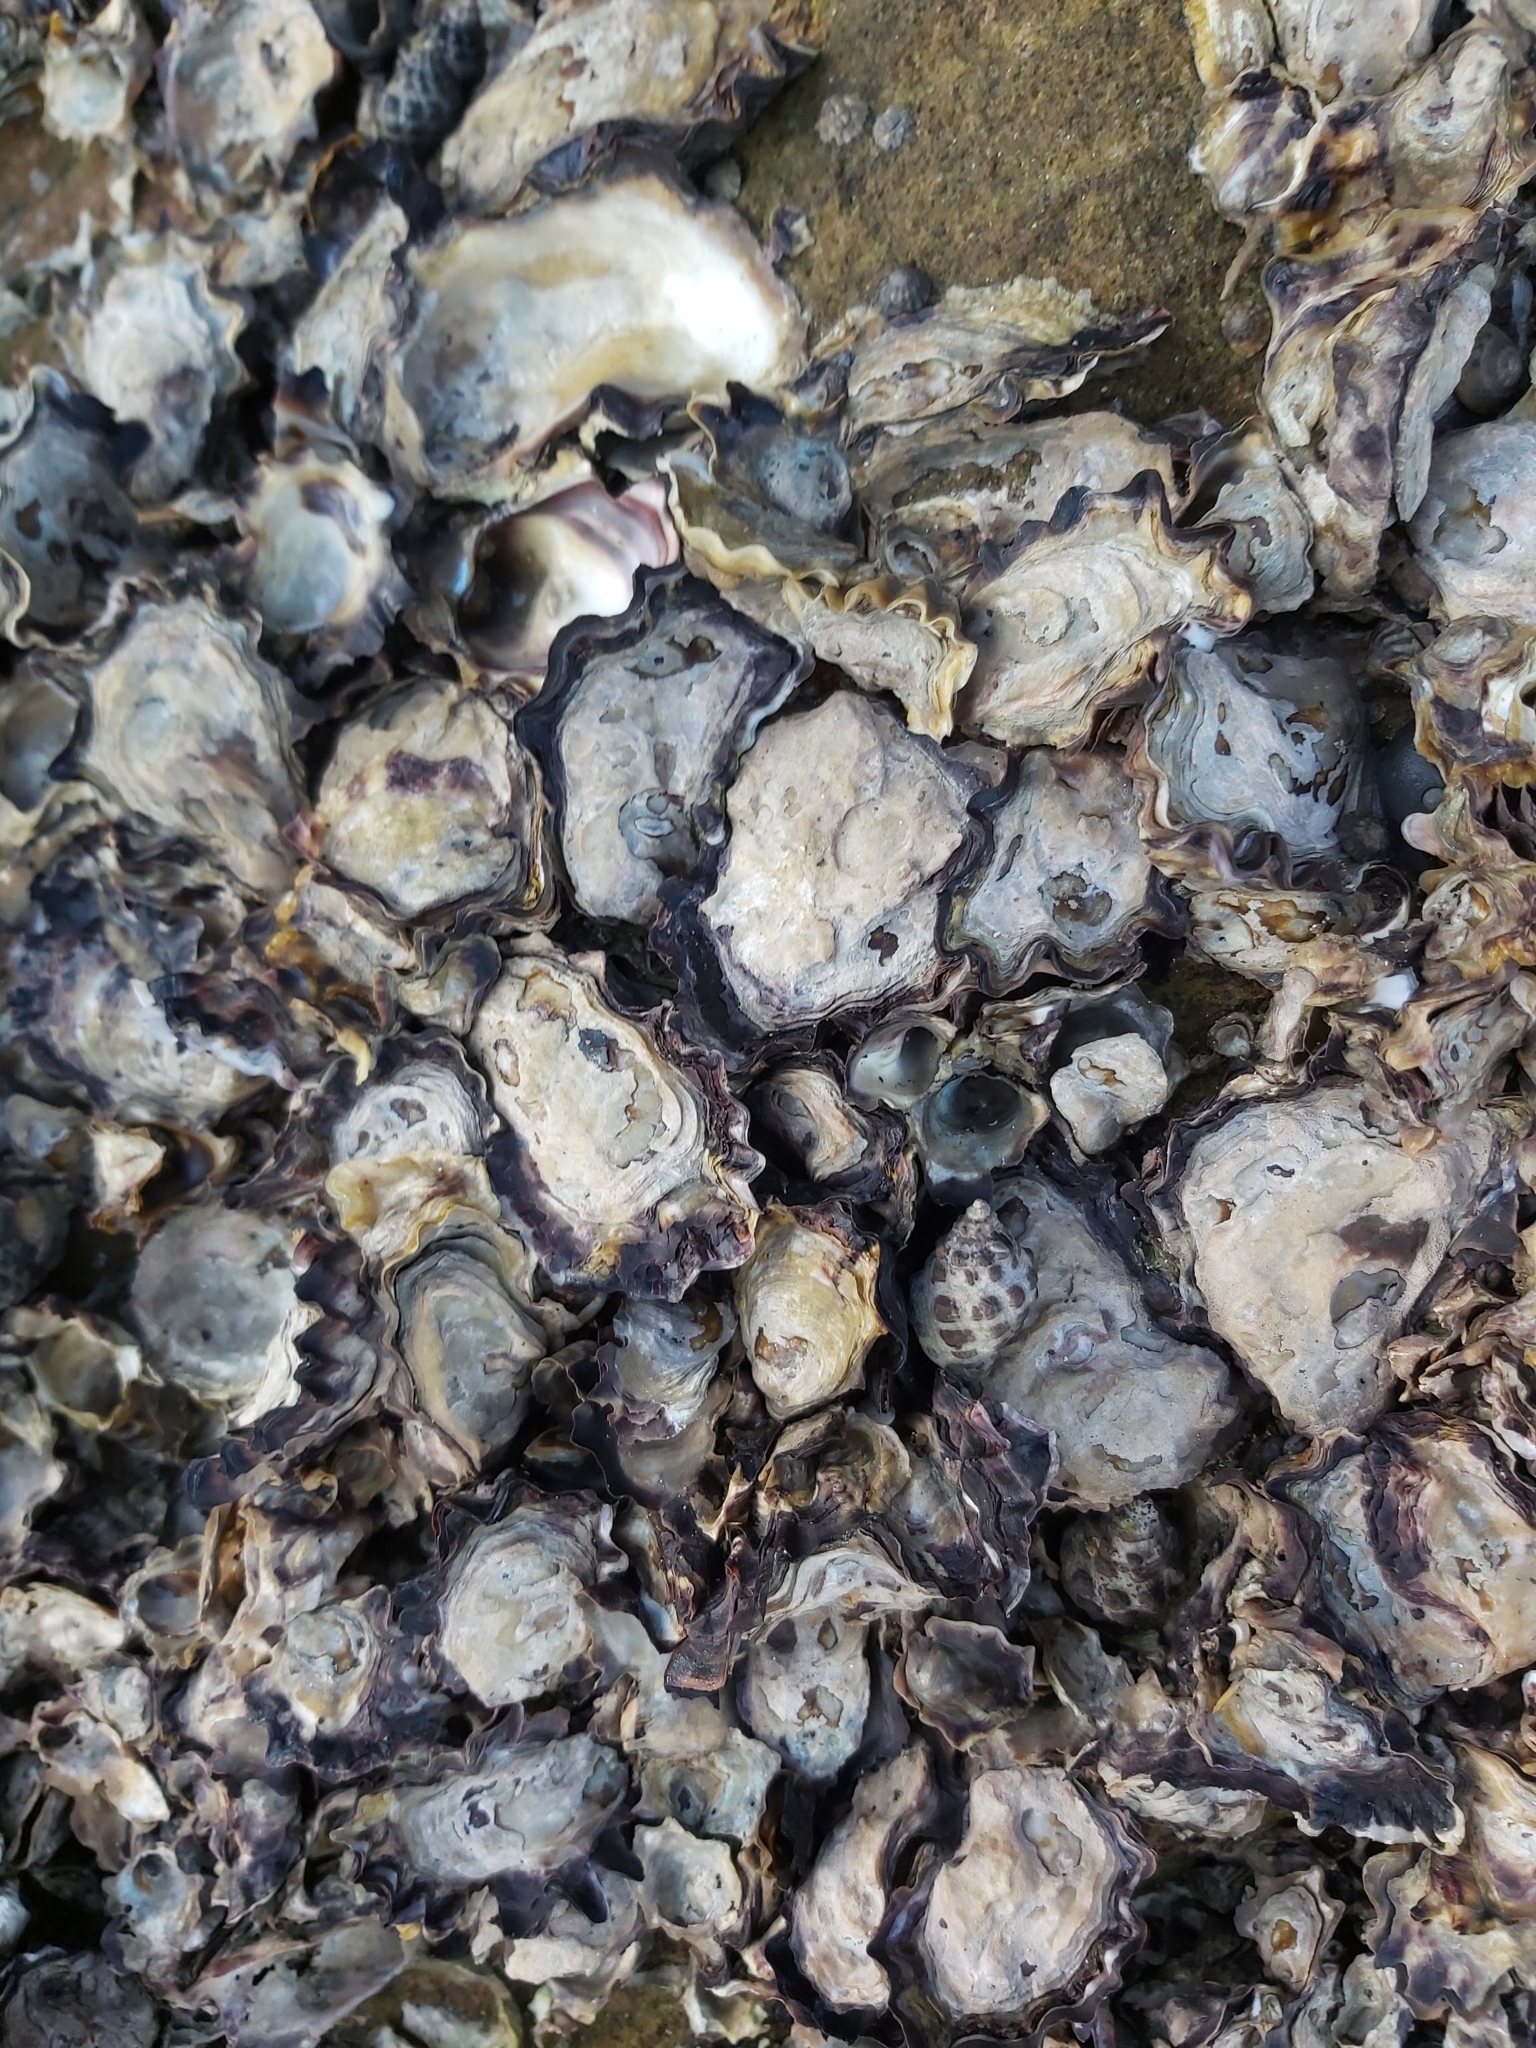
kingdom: Animalia
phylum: Mollusca
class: Bivalvia
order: Ostreida
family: Ostreidae
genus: Saccostrea
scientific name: Saccostrea glomerata
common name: Sydney cupped oyster
